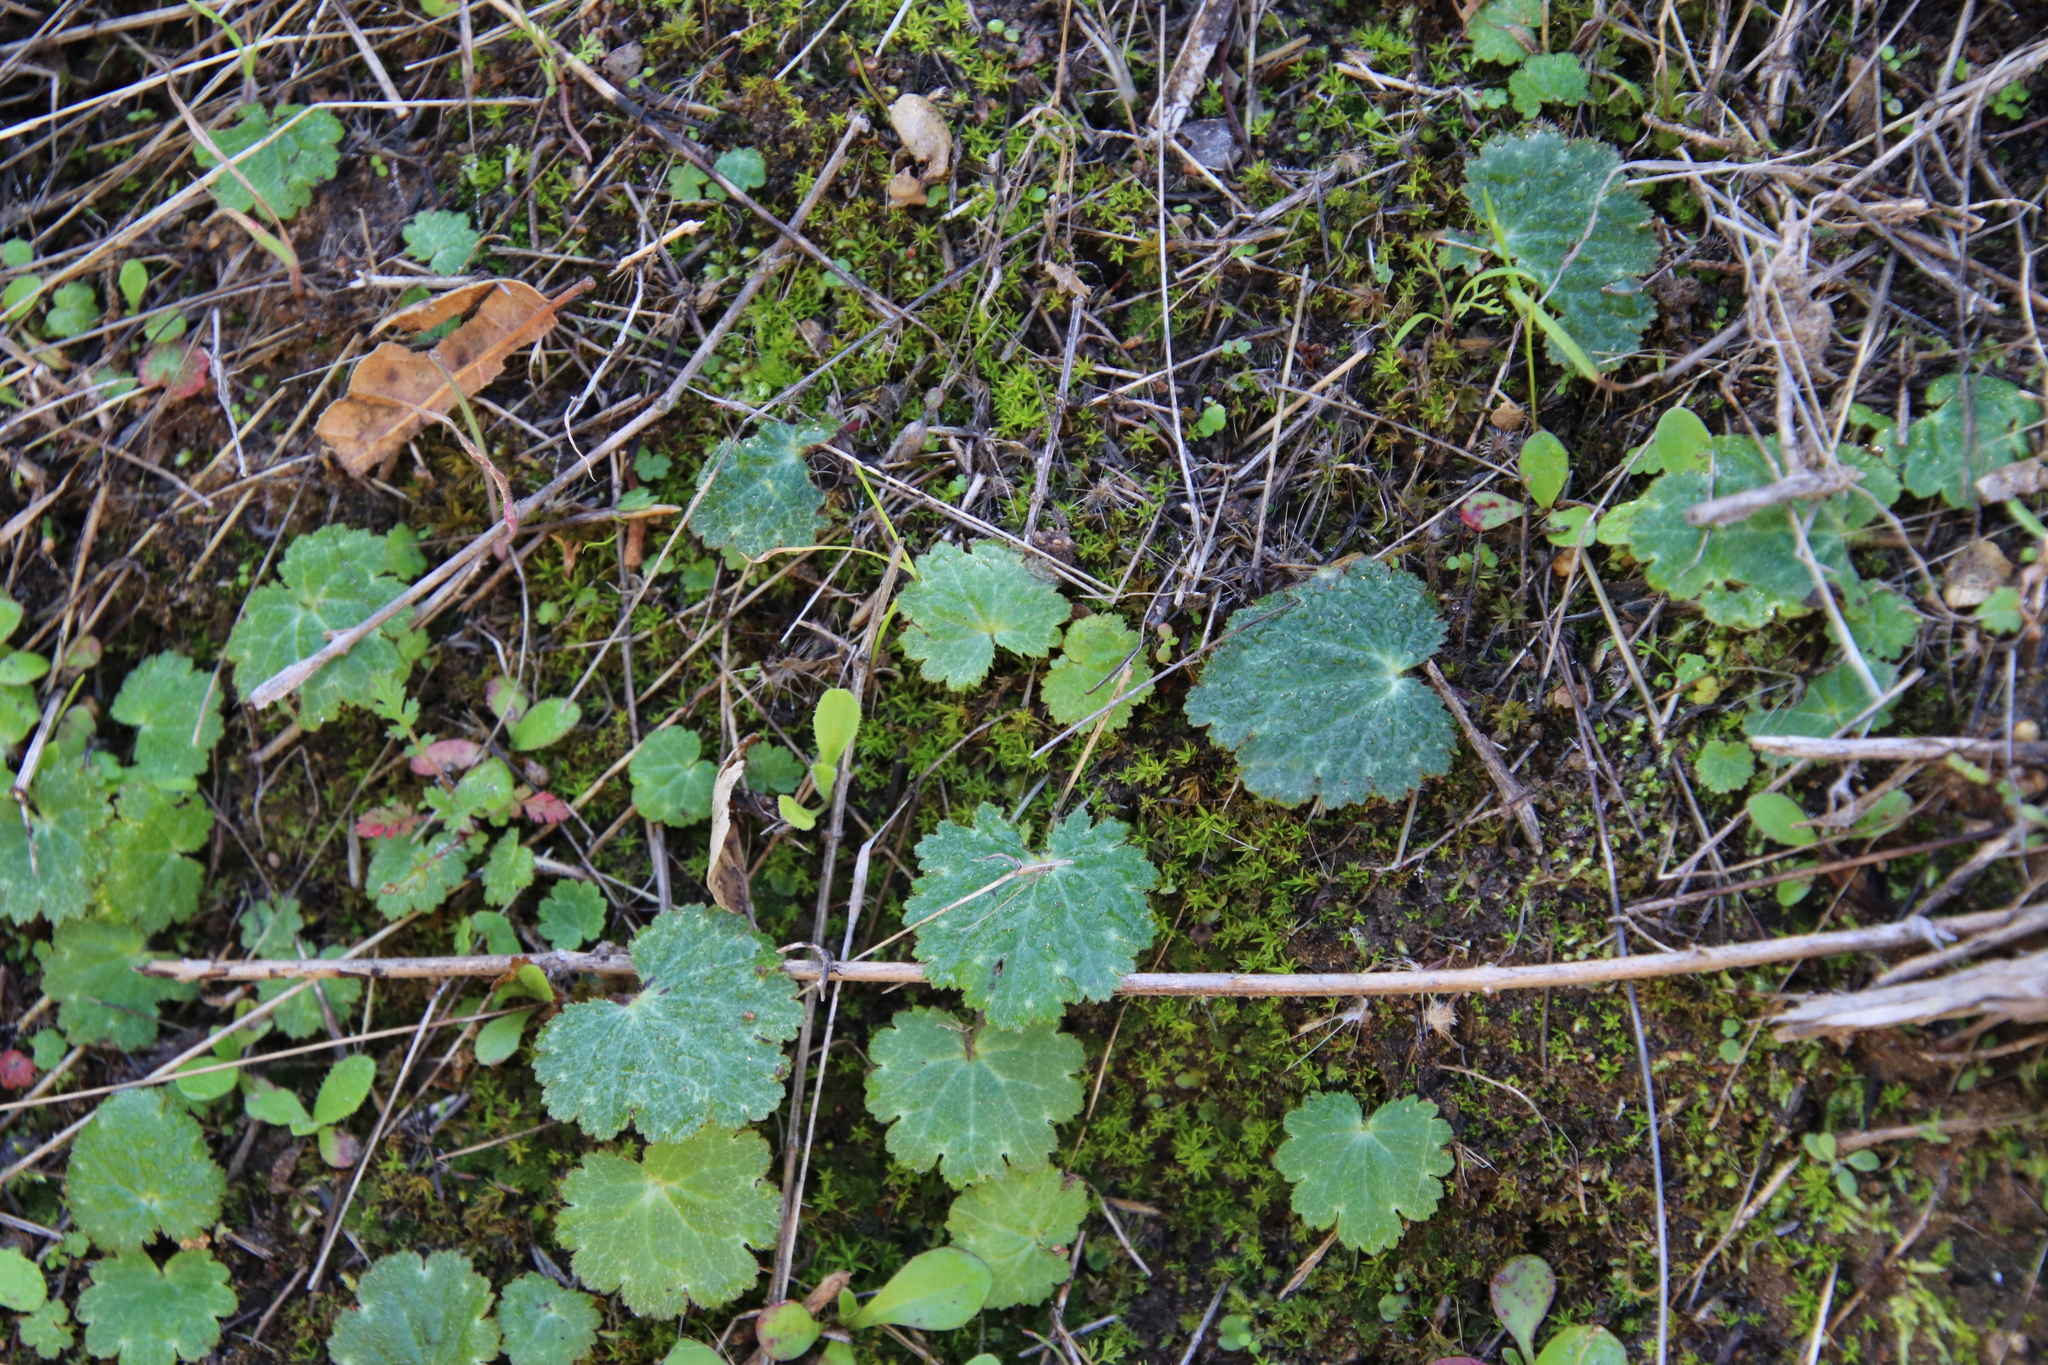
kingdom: Plantae
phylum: Tracheophyta
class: Magnoliopsida
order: Saxifragales
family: Saxifragaceae
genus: Jepsonia
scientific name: Jepsonia parryi
